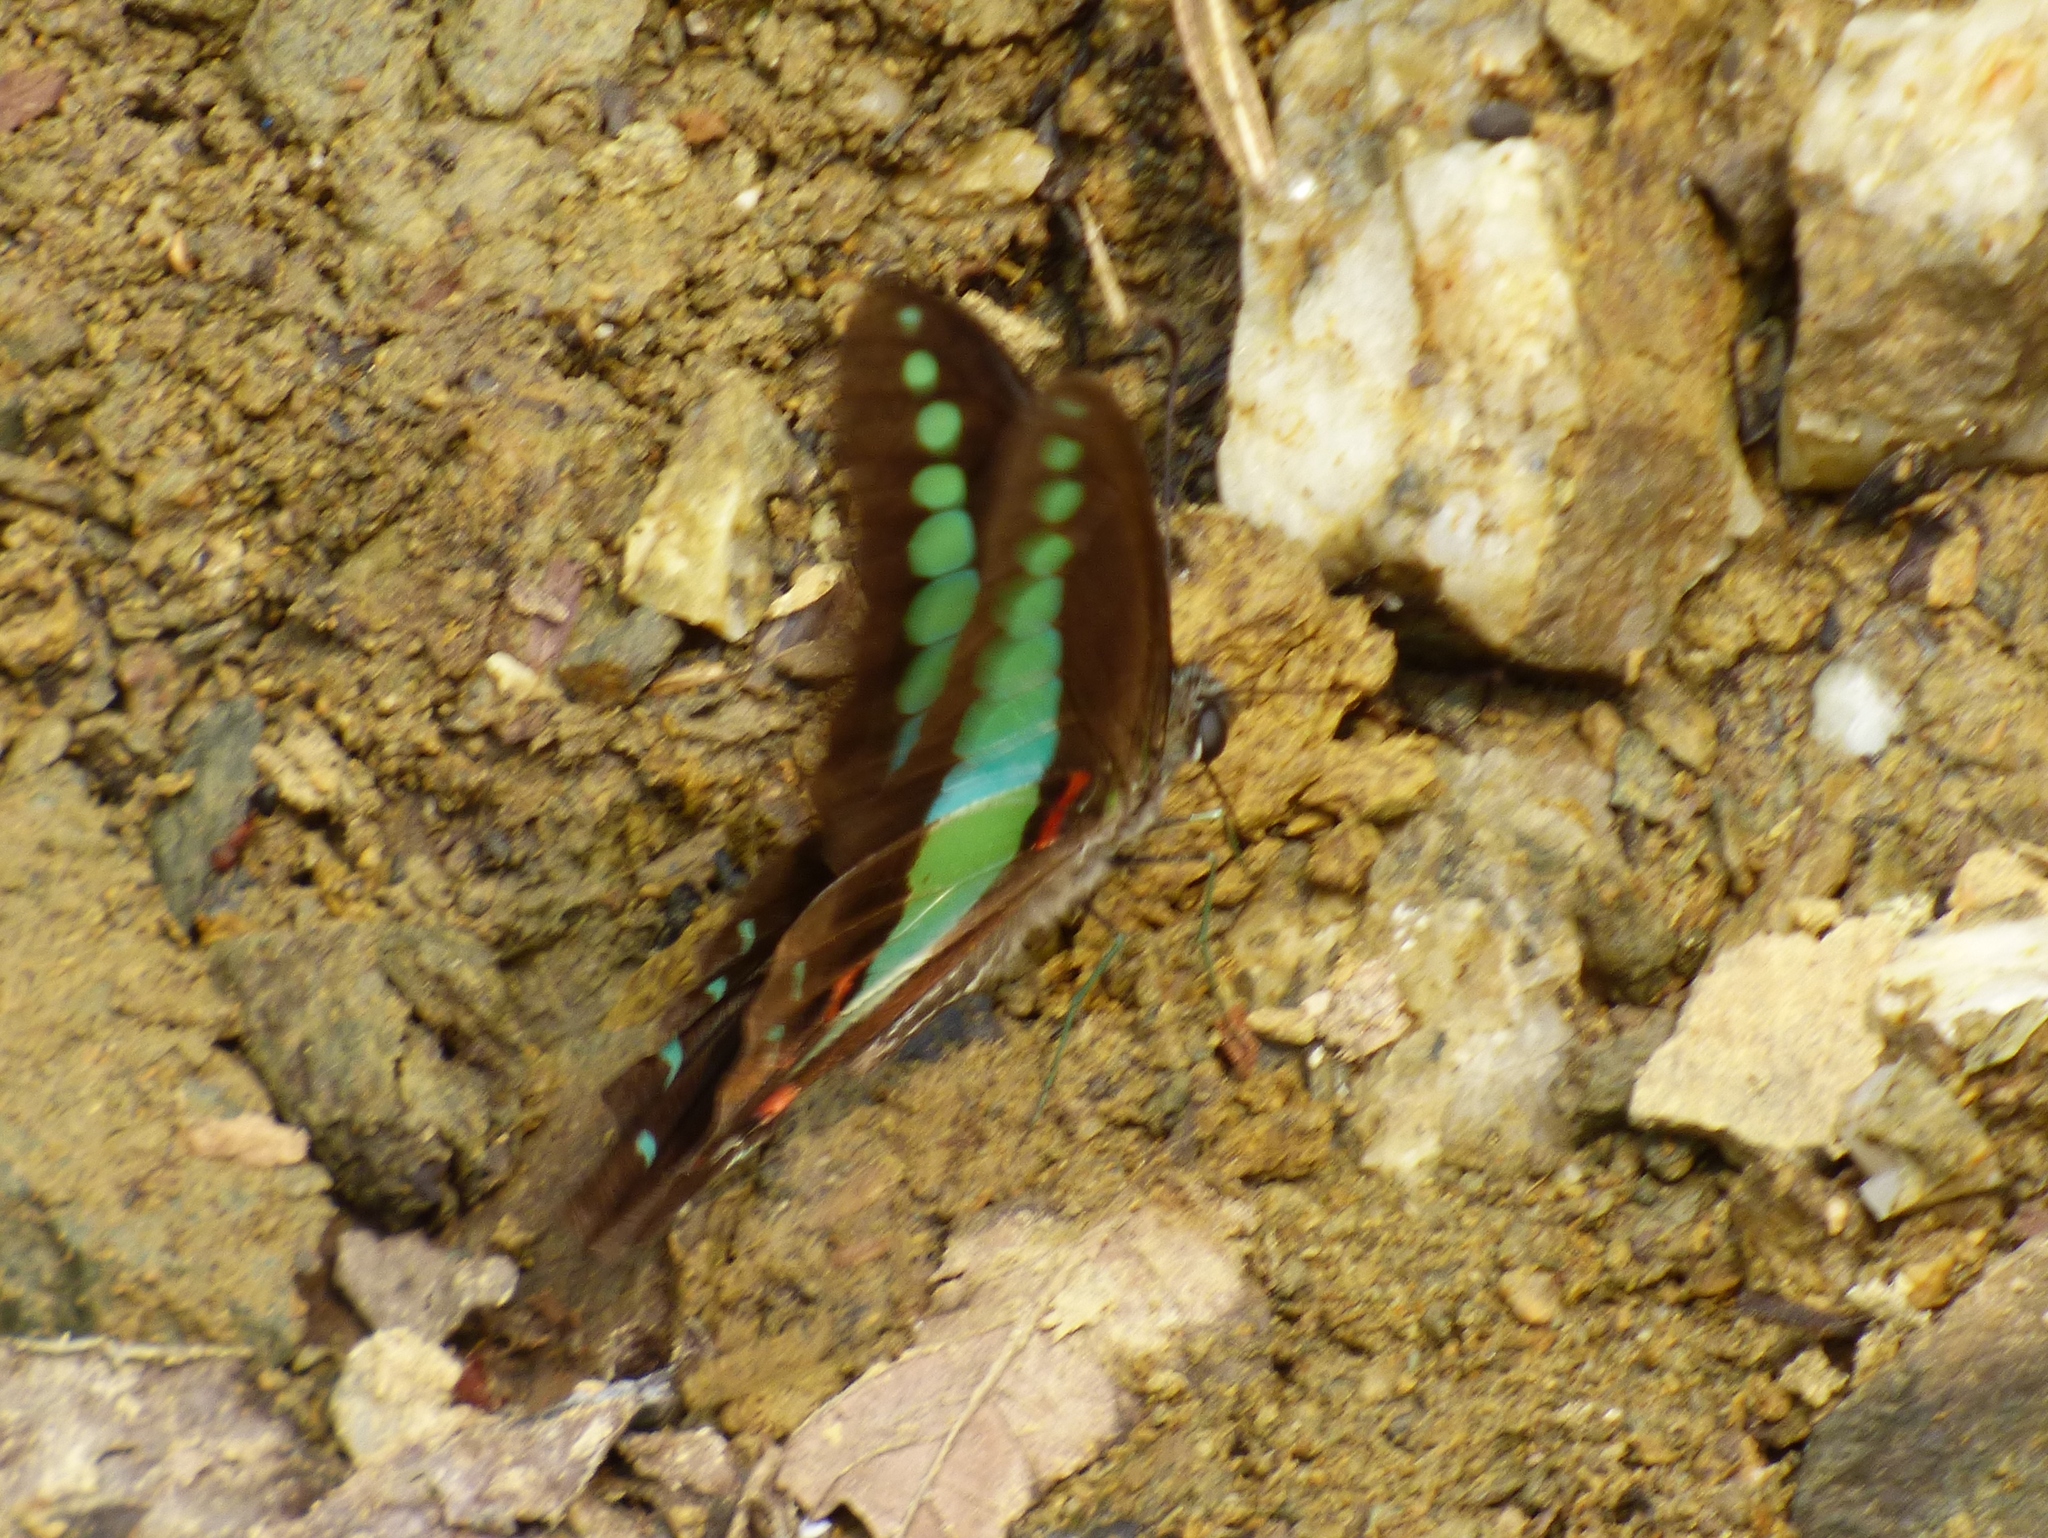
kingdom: Fungi
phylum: Ascomycota
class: Sordariomycetes
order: Microascales
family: Microascaceae
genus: Graphium
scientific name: Graphium sarpedon
